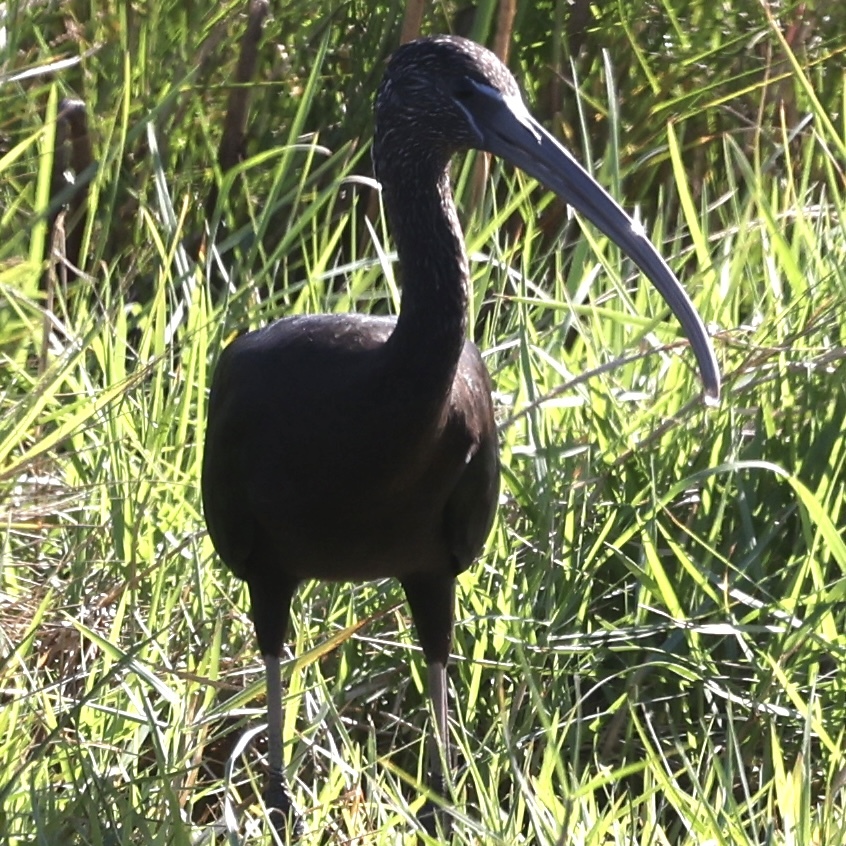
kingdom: Animalia
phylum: Chordata
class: Aves
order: Pelecaniformes
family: Threskiornithidae
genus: Plegadis
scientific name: Plegadis falcinellus
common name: Glossy ibis
